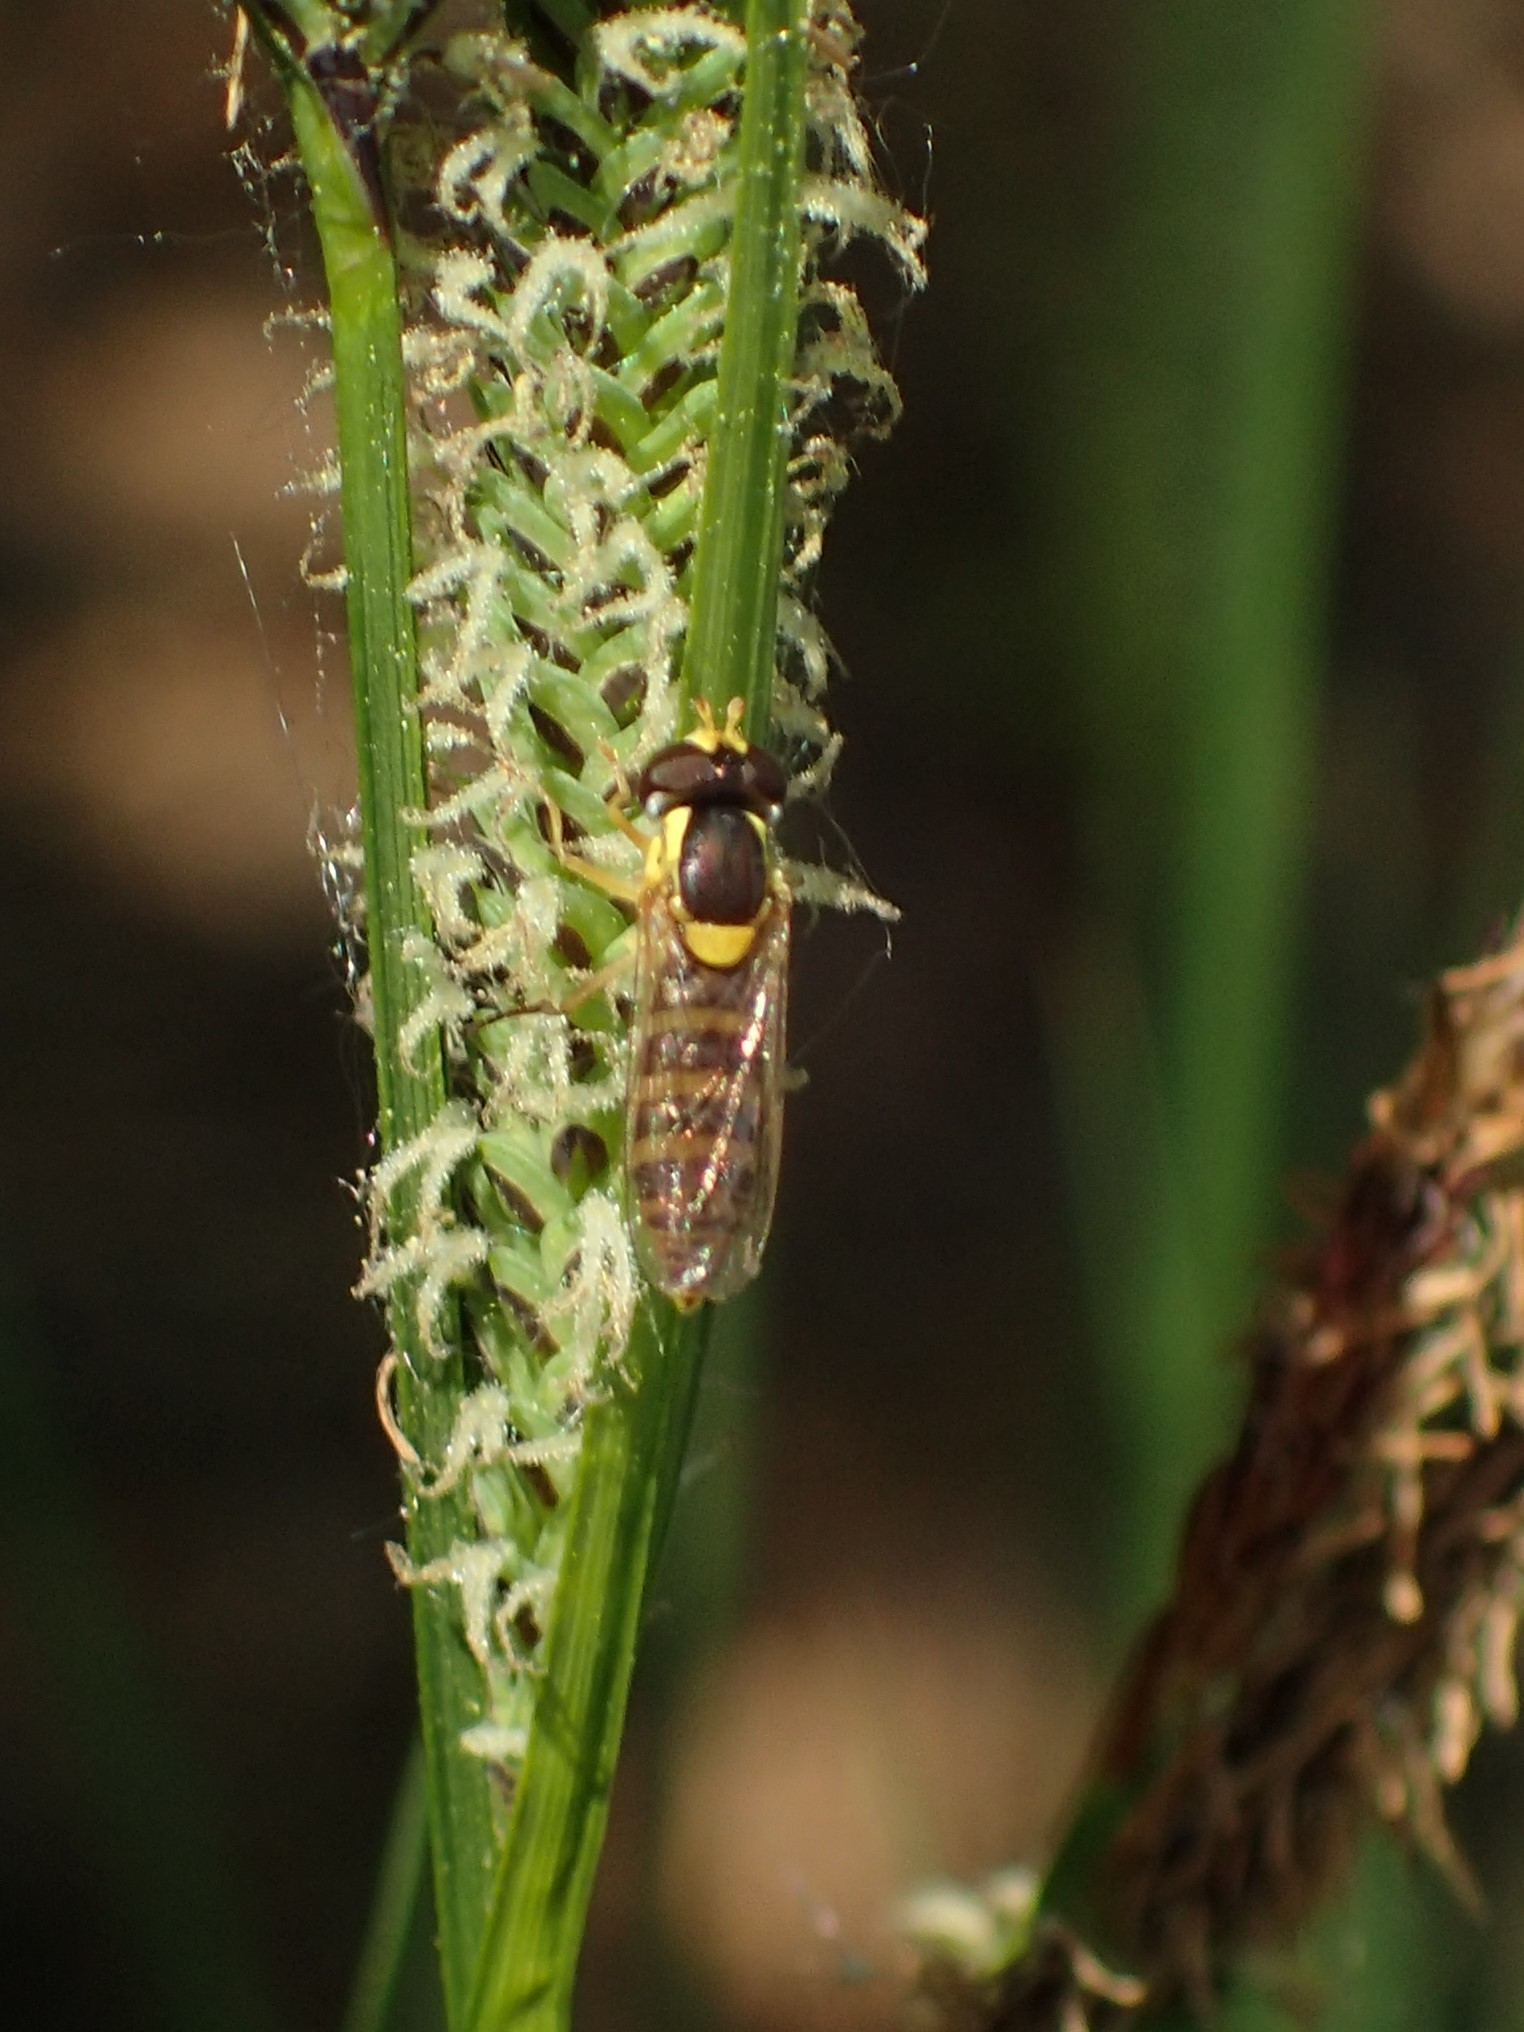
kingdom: Animalia
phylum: Arthropoda
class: Insecta
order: Diptera
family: Syrphidae
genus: Sphaerophoria
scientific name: Sphaerophoria
